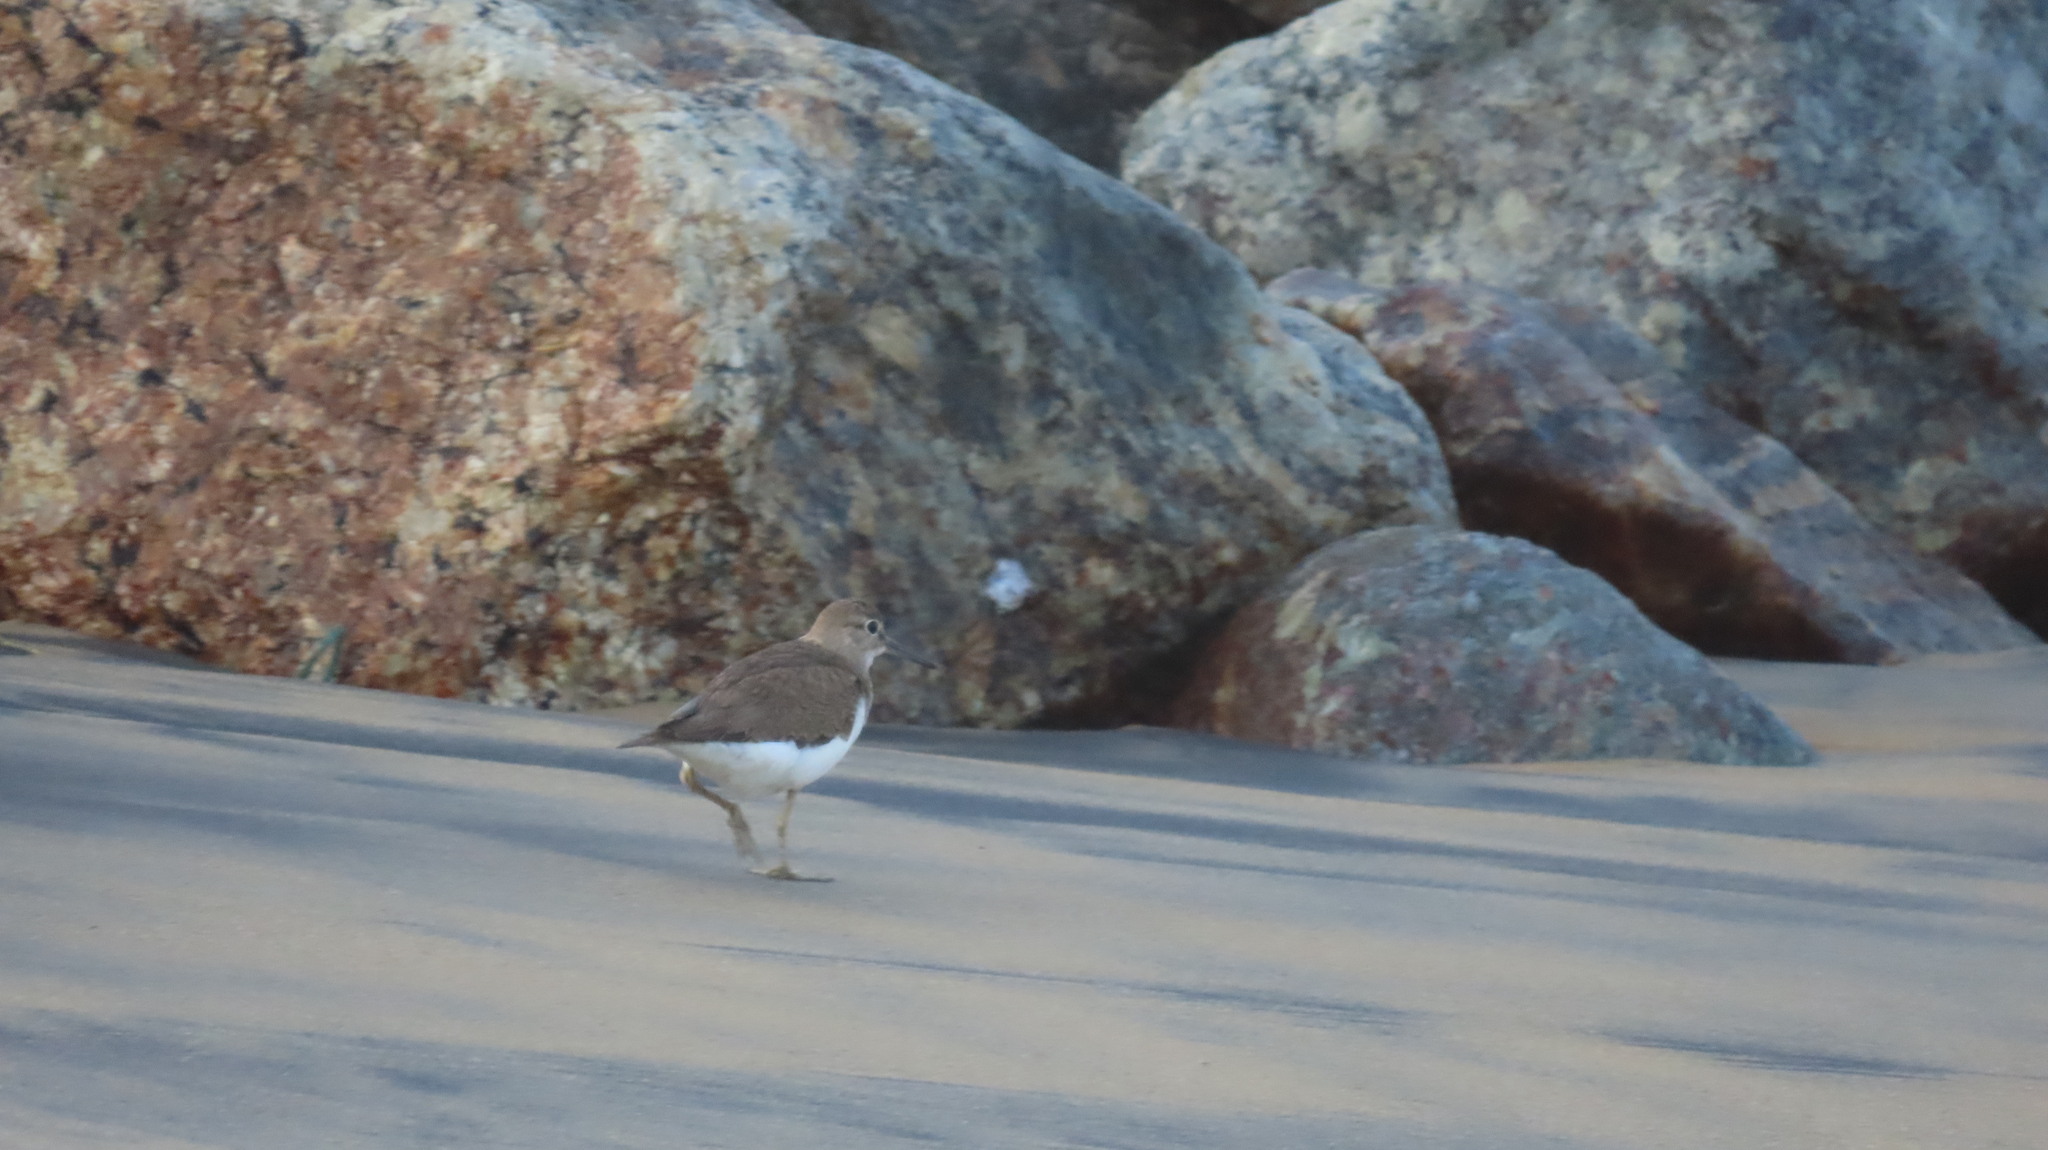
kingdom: Animalia
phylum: Chordata
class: Aves
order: Charadriiformes
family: Scolopacidae
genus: Actitis
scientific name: Actitis hypoleucos
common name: Common sandpiper
